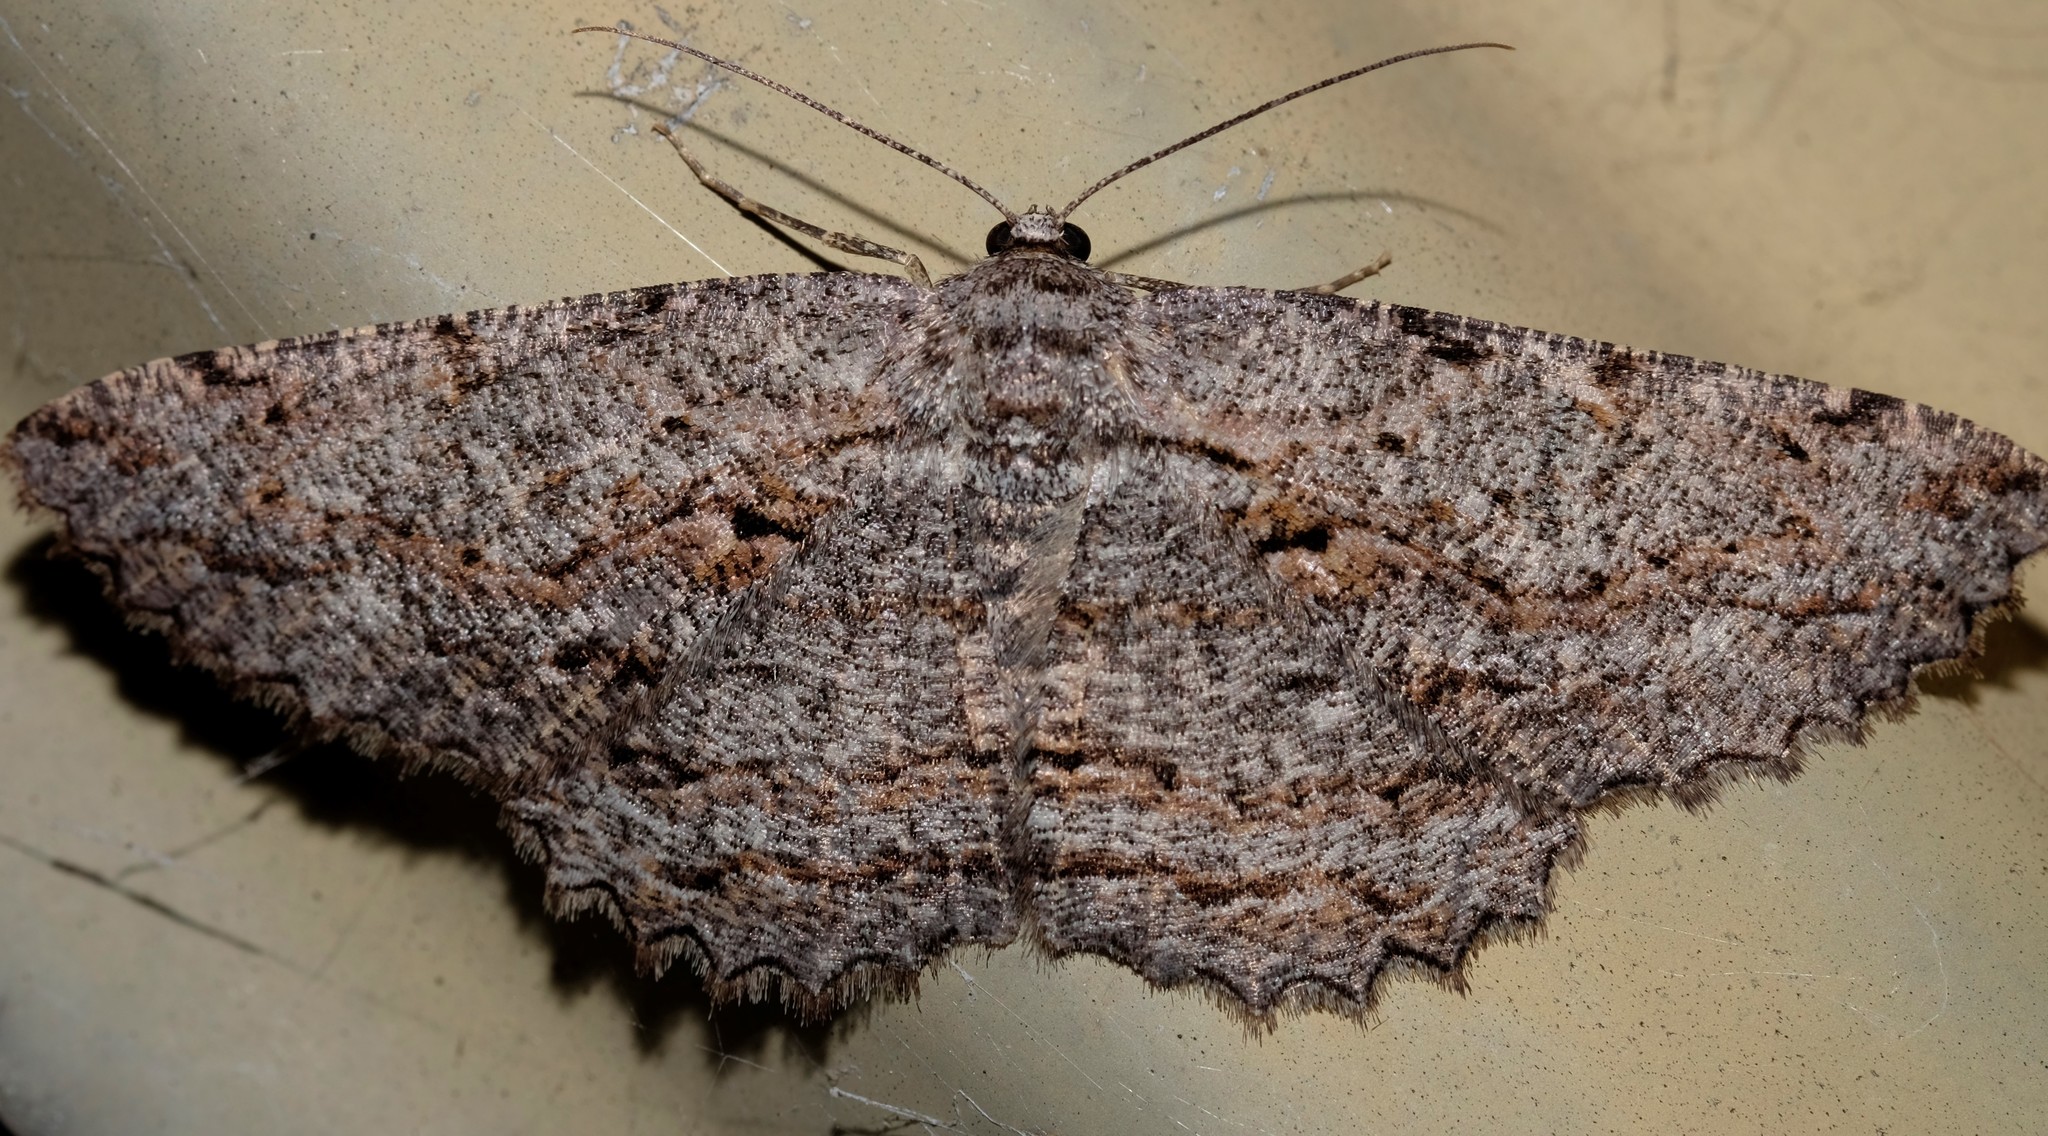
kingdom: Animalia
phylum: Arthropoda
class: Insecta
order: Lepidoptera
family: Geometridae
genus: Scioglyptis
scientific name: Scioglyptis lyciaria
